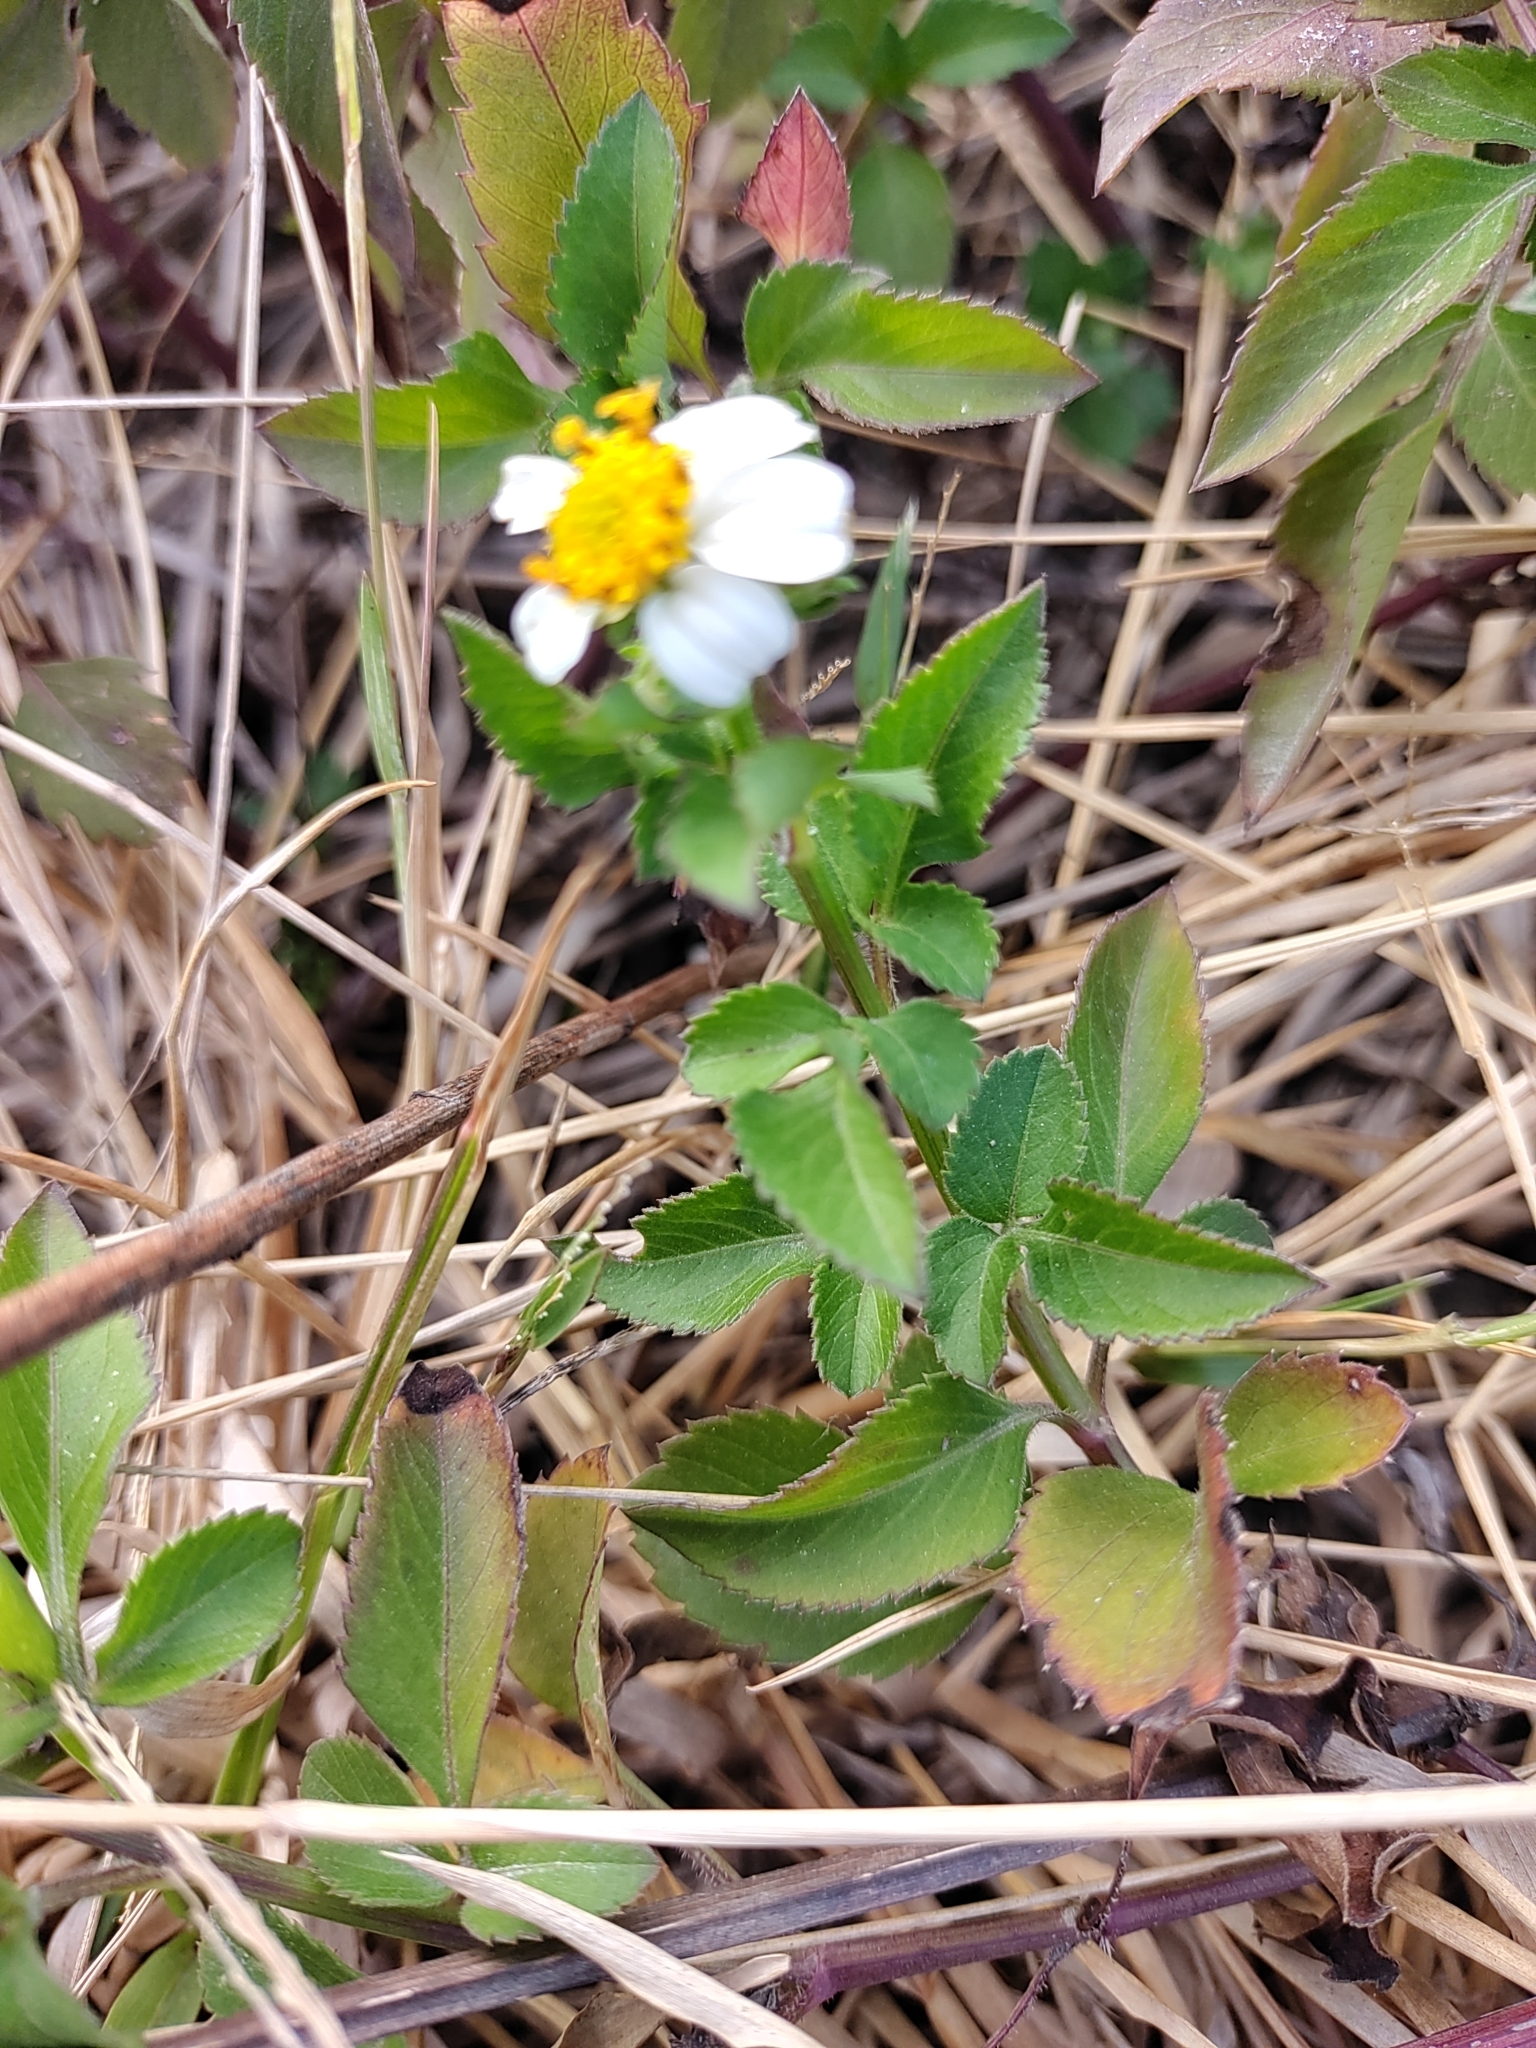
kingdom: Plantae
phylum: Tracheophyta
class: Magnoliopsida
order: Asterales
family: Asteraceae
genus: Bidens
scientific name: Bidens alba
